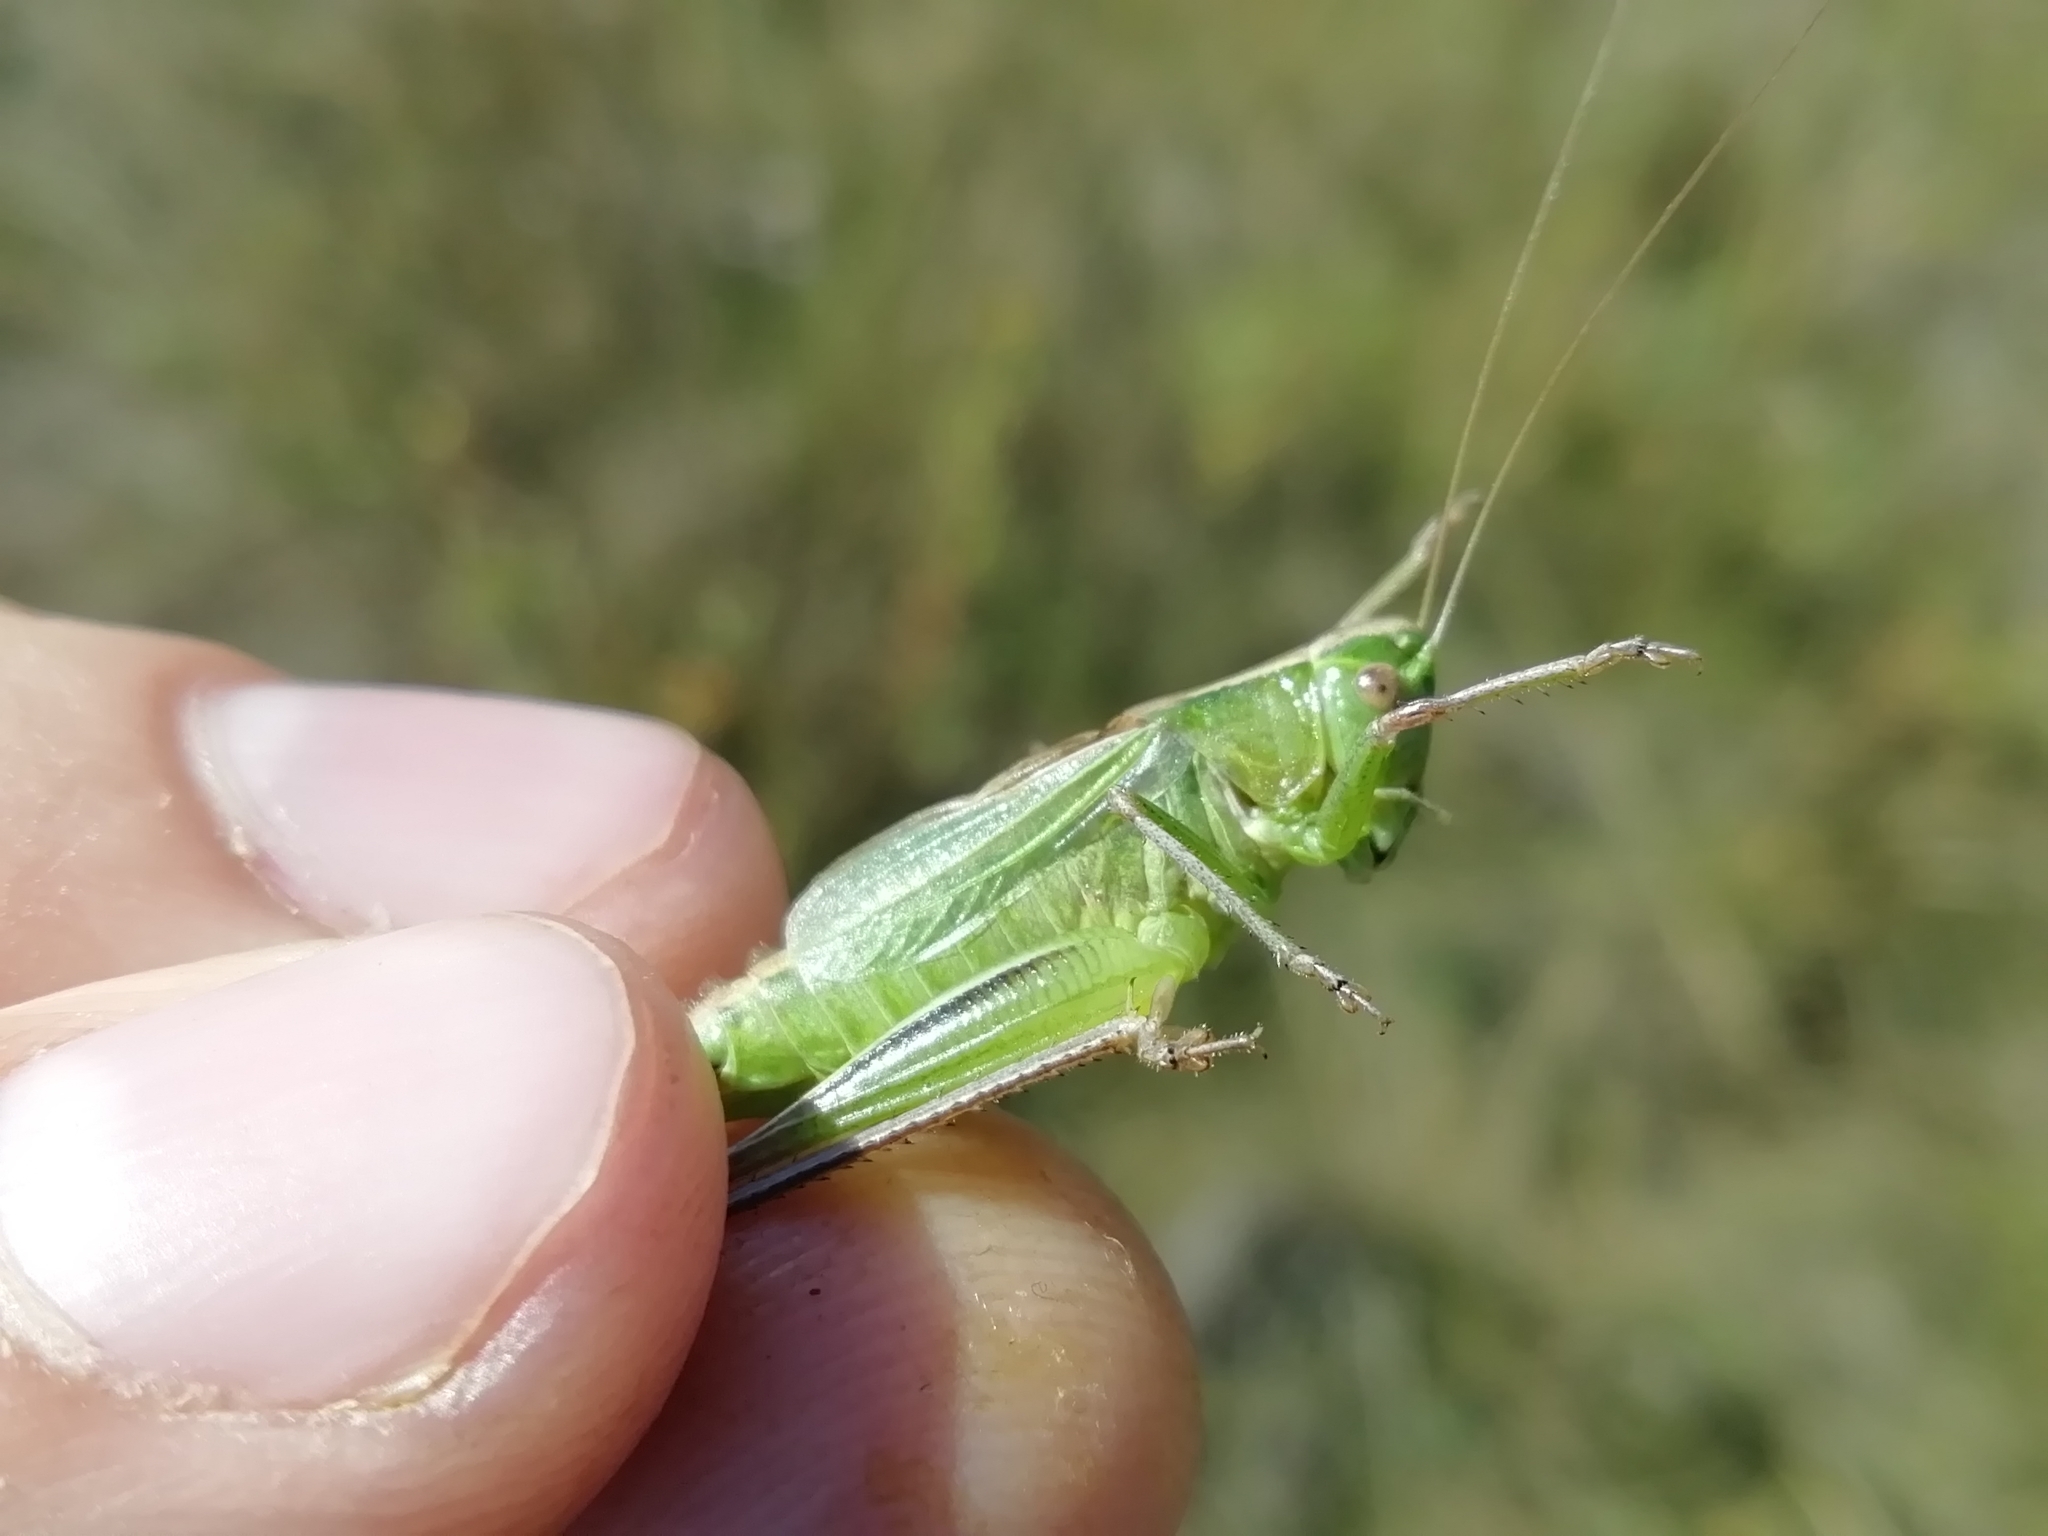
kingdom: Animalia
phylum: Arthropoda
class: Insecta
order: Orthoptera
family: Tettigoniidae
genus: Bicolorana
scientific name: Bicolorana bicolor
